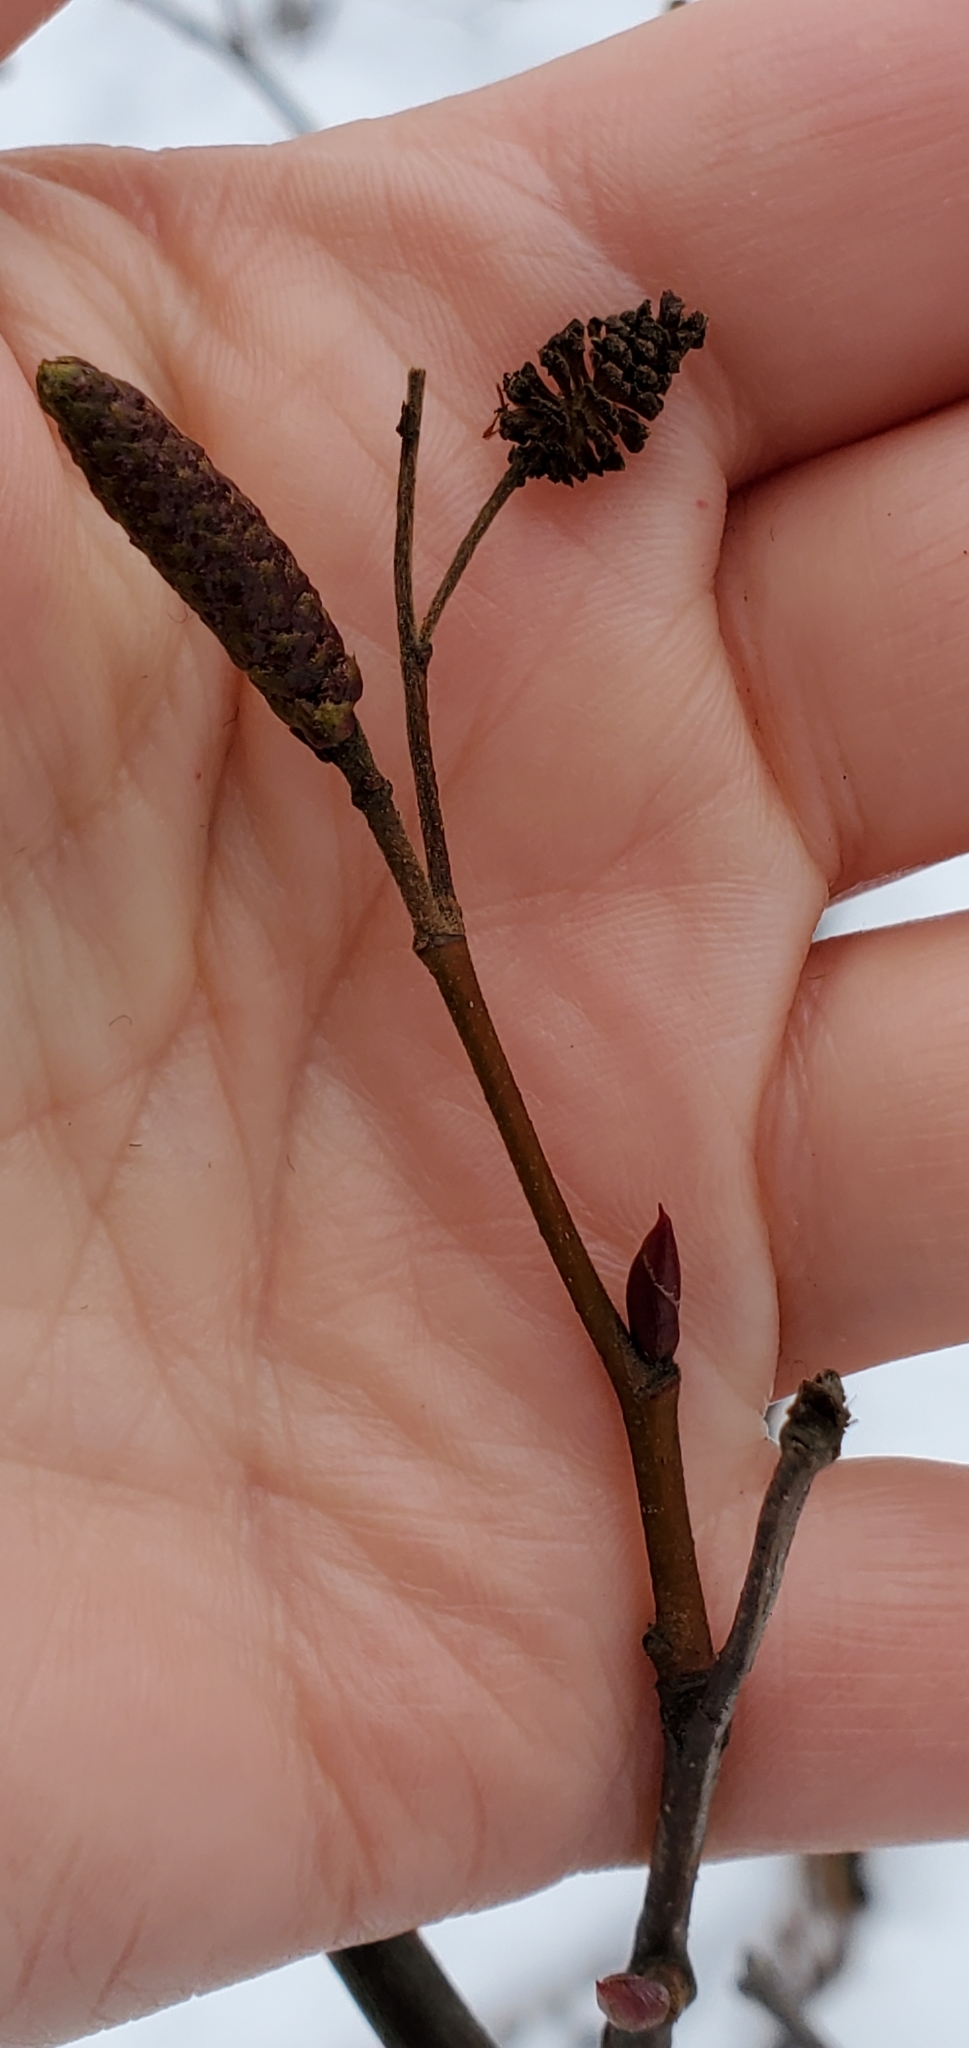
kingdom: Plantae
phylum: Tracheophyta
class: Magnoliopsida
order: Fagales
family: Betulaceae
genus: Alnus
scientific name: Alnus alnobetula
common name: Green alder
